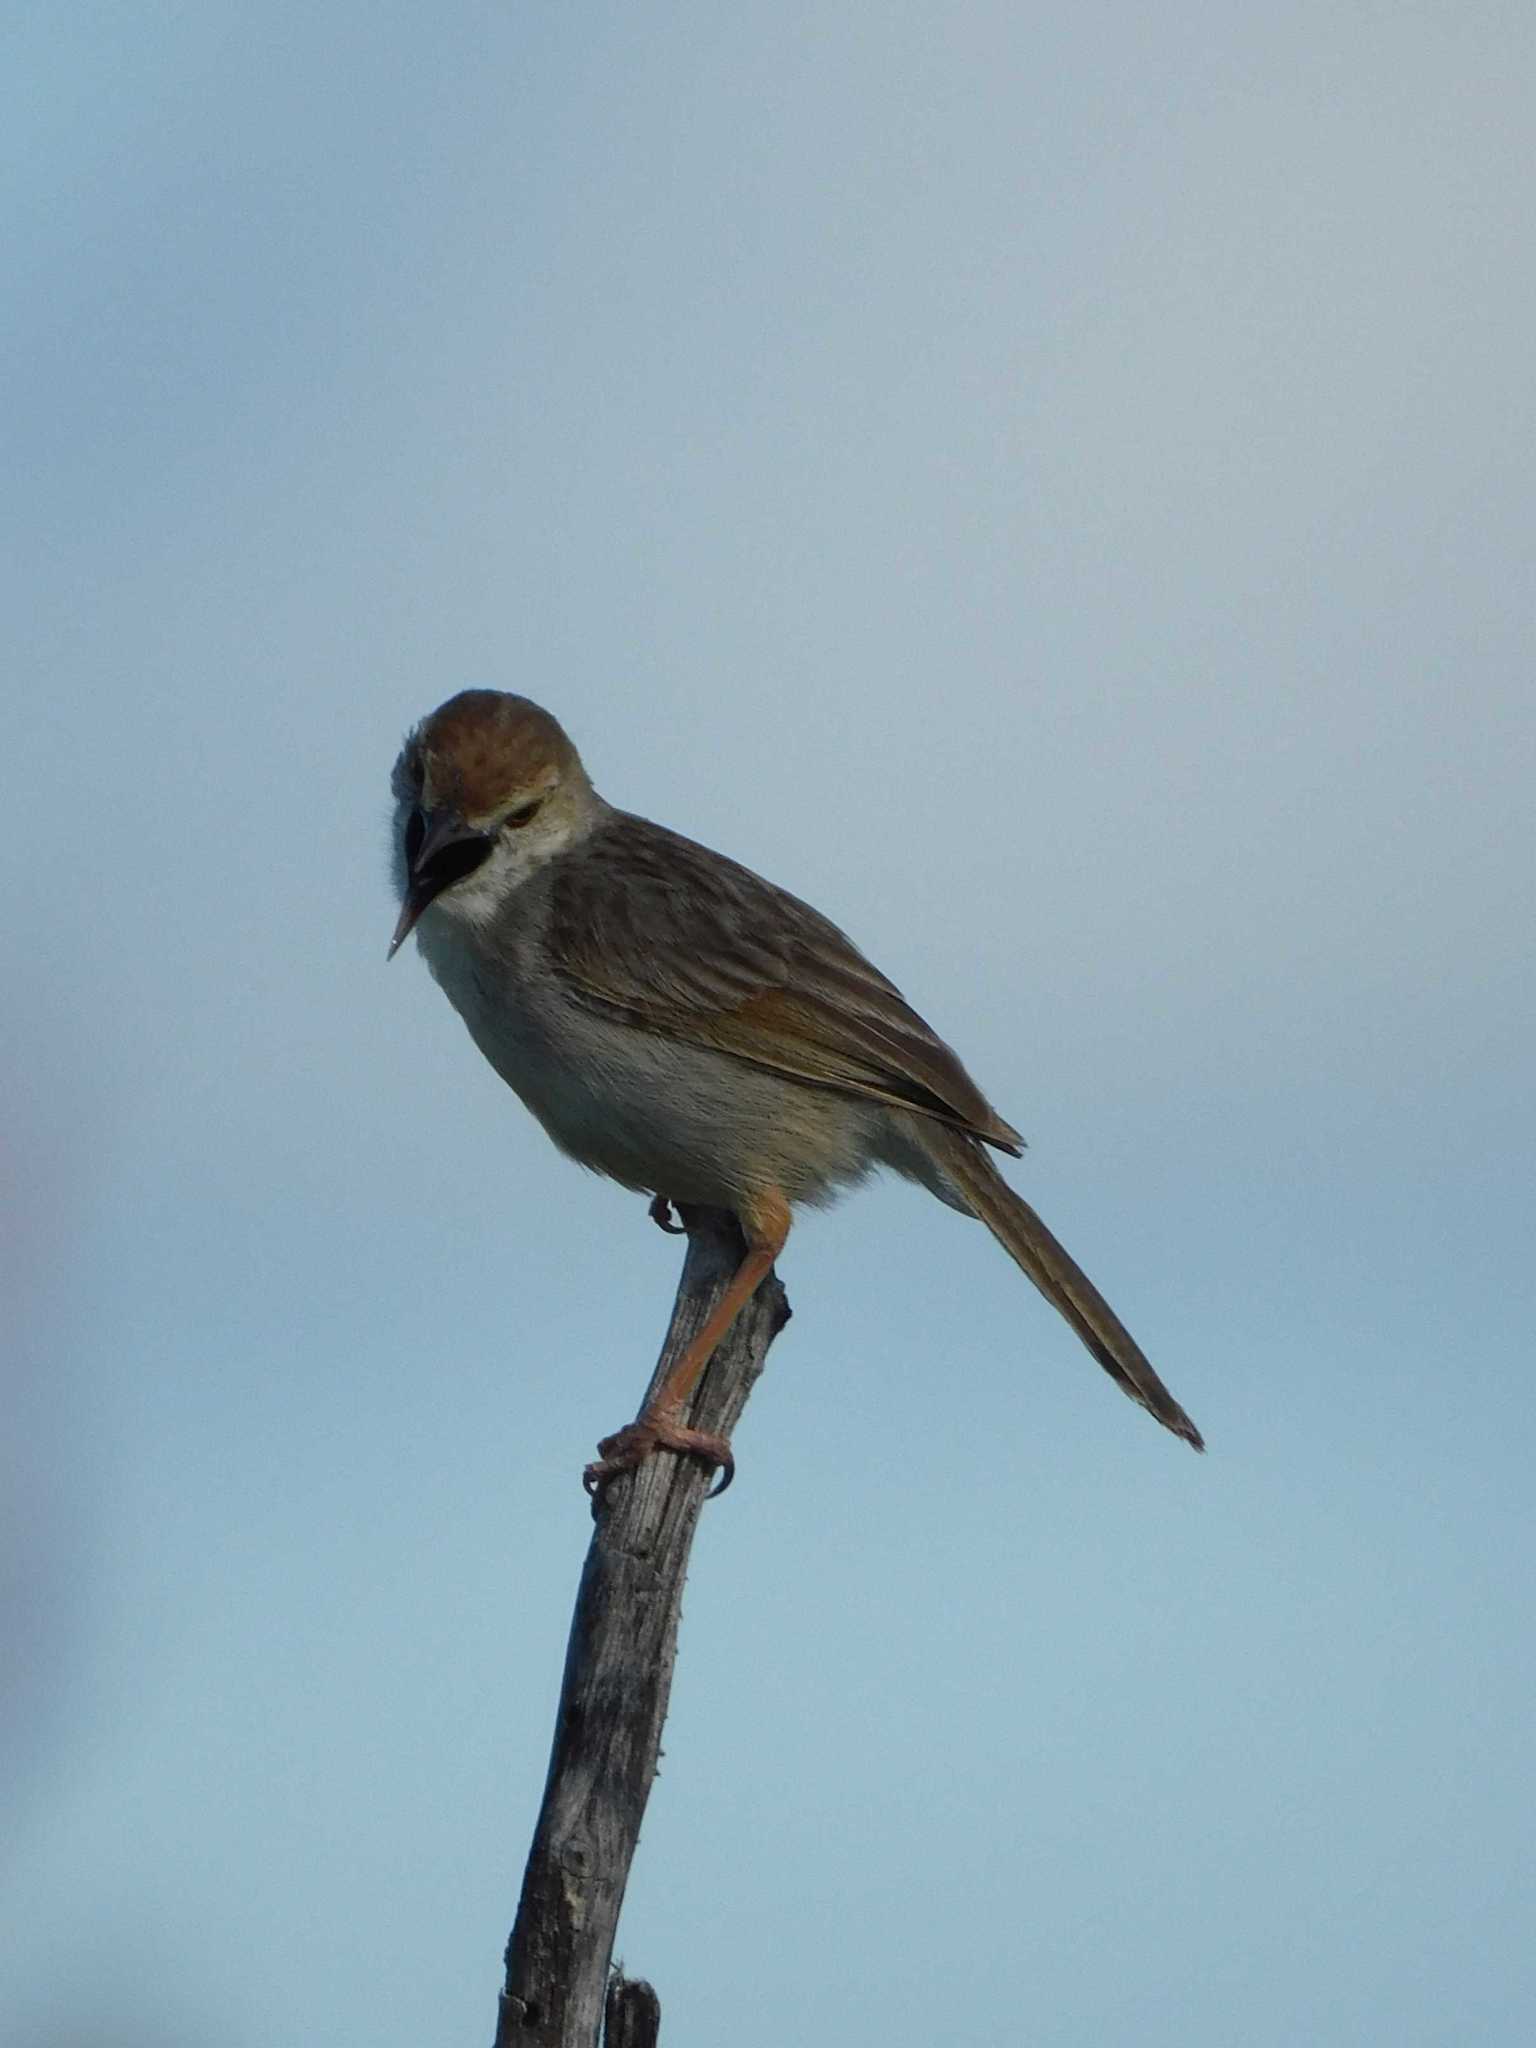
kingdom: Animalia
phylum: Chordata
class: Aves
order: Passeriformes
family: Cisticolidae
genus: Cisticola
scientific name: Cisticola chiniana
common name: Rattling cisticola
